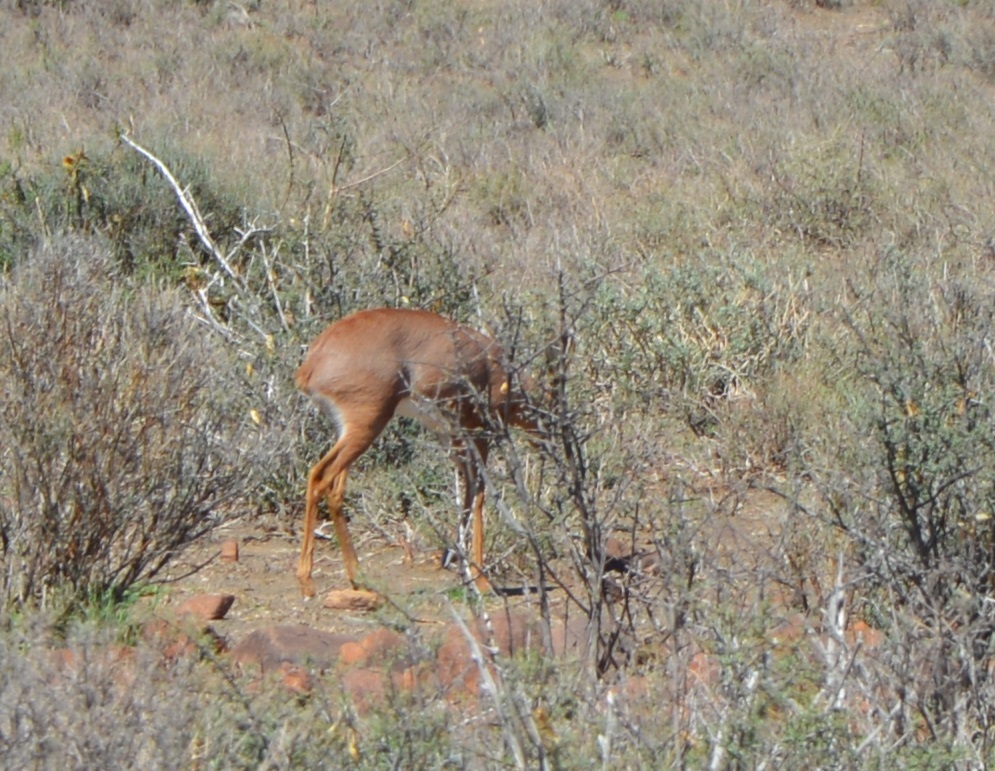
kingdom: Animalia
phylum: Chordata
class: Mammalia
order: Artiodactyla
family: Bovidae
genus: Raphicerus
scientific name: Raphicerus campestris
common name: Steenbok
